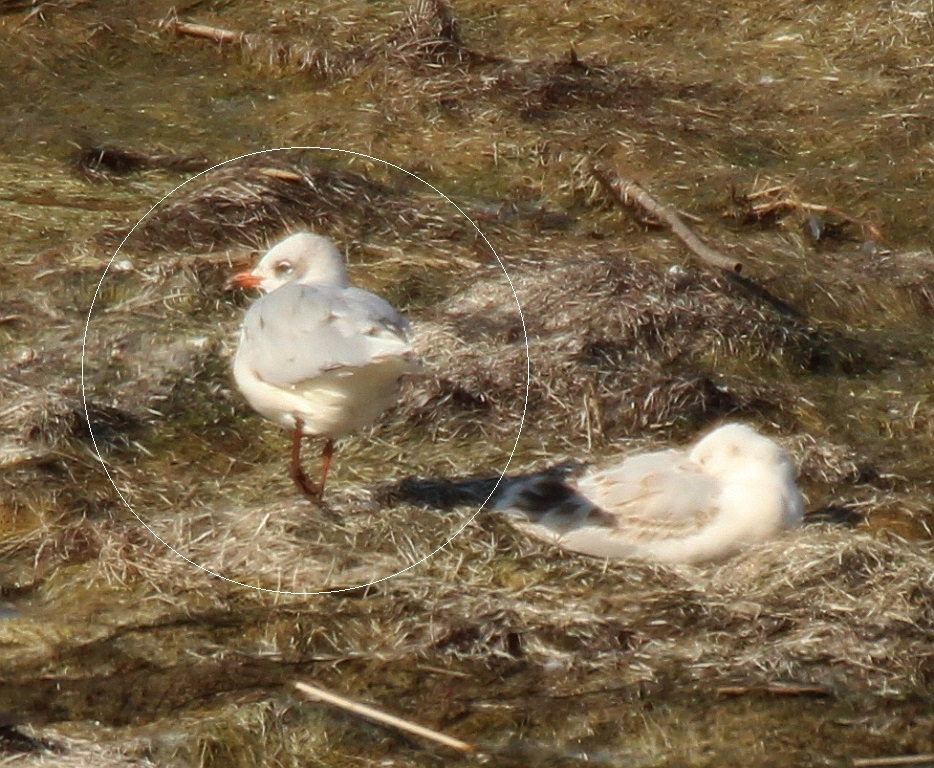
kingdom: Animalia
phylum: Chordata
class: Aves
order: Charadriiformes
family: Laridae
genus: Ichthyaetus
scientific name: Ichthyaetus melanocephalus
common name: Mediterranean gull
